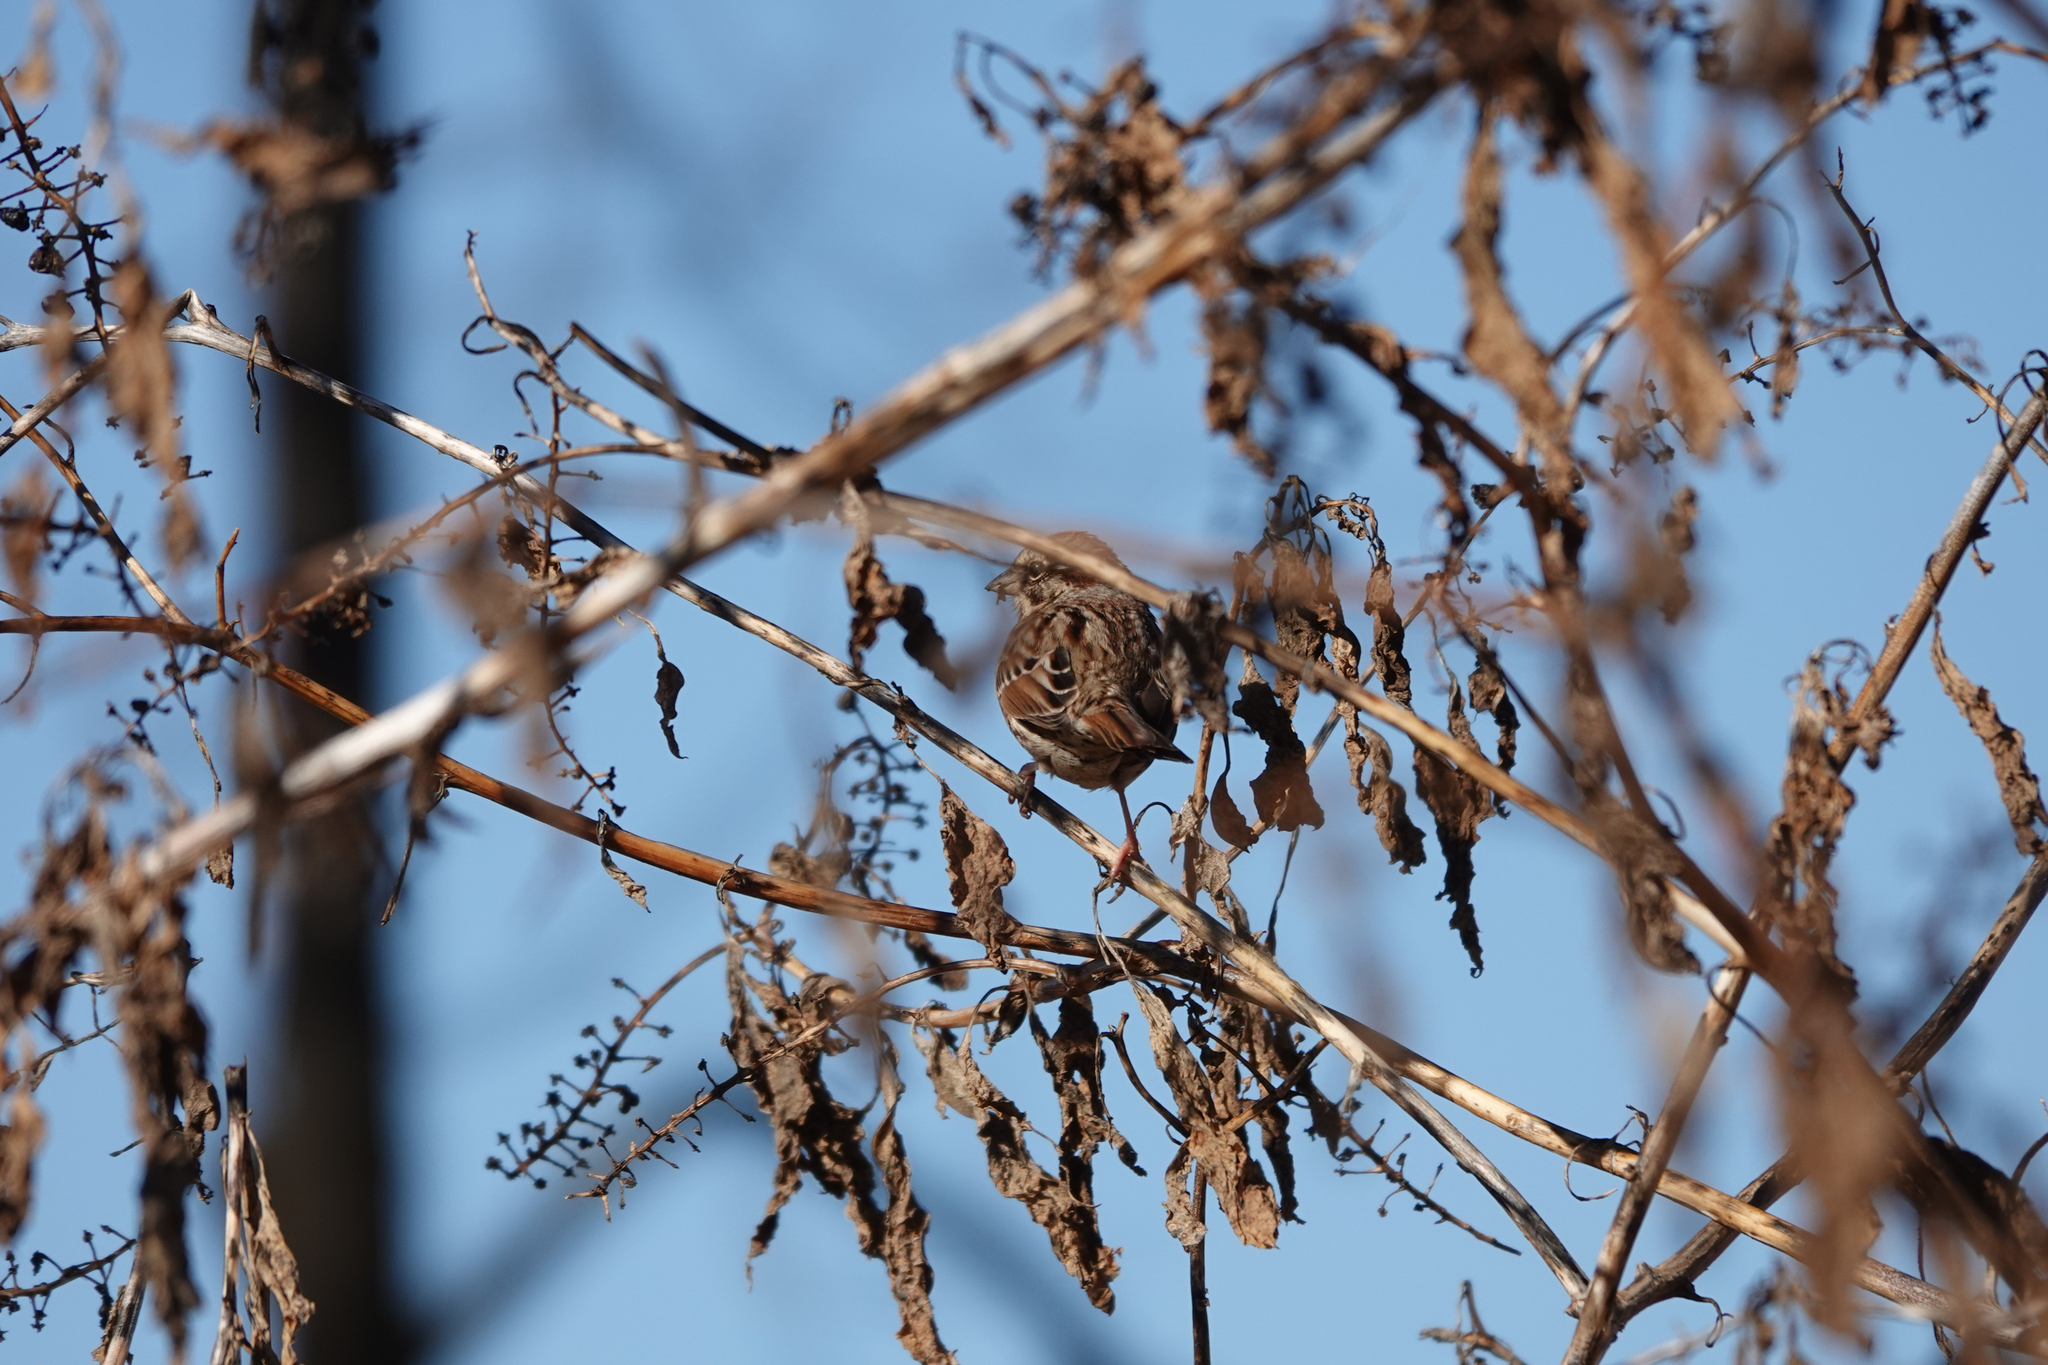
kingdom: Animalia
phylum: Chordata
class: Aves
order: Passeriformes
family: Passerellidae
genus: Melospiza
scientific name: Melospiza melodia
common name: Song sparrow
